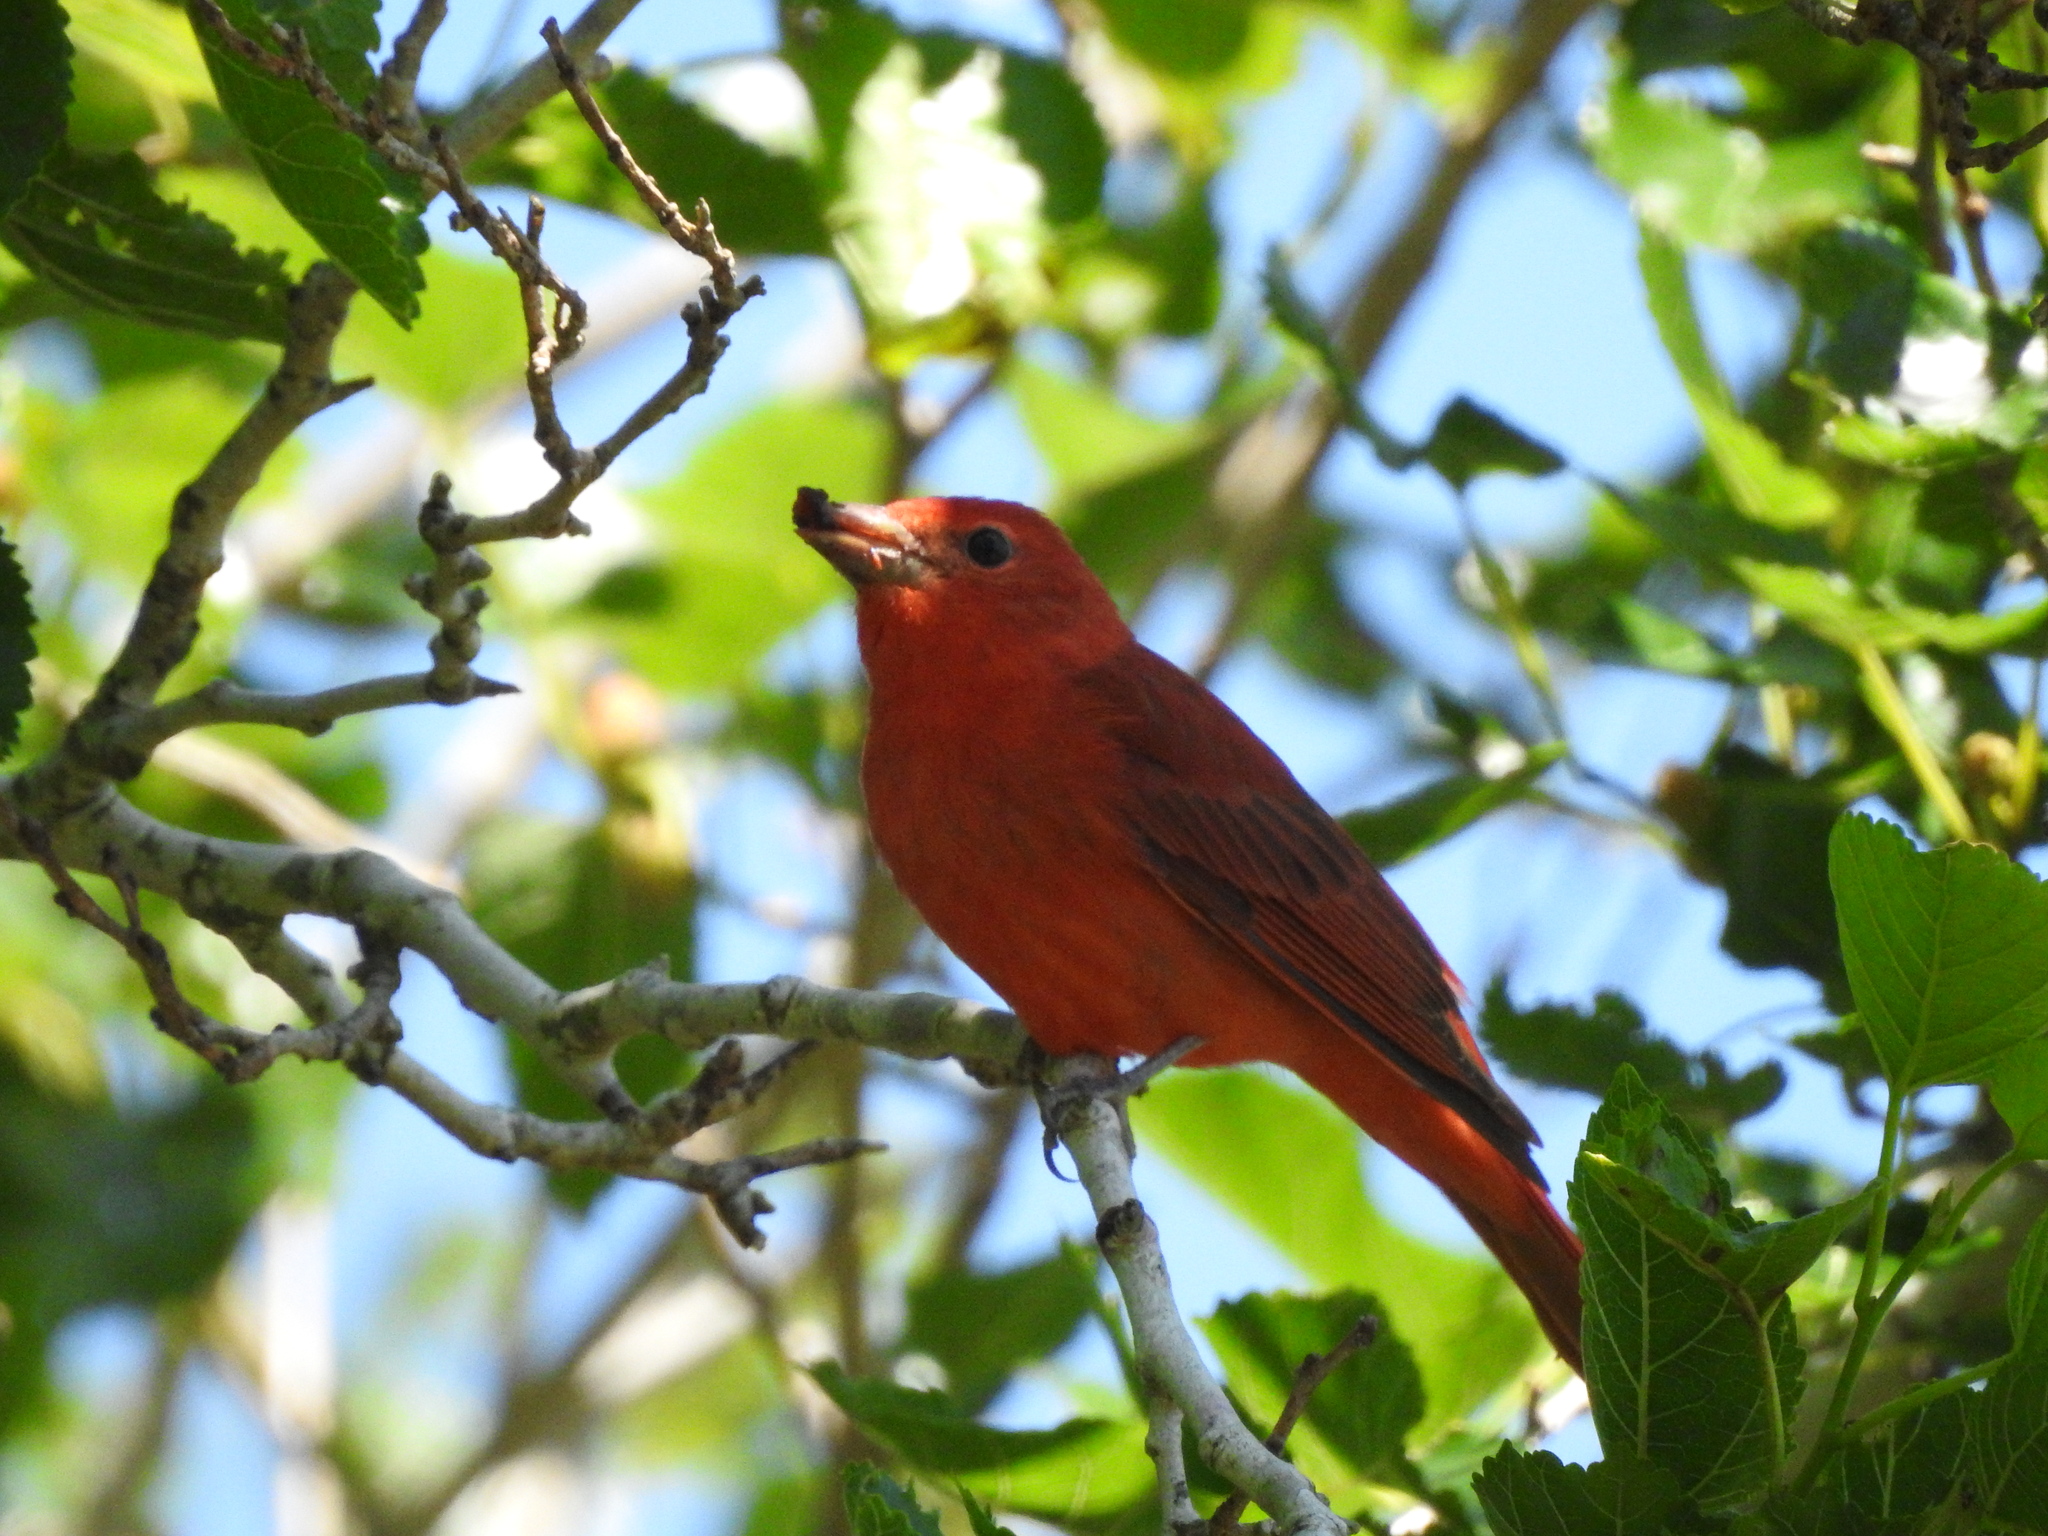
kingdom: Animalia
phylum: Chordata
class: Aves
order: Passeriformes
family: Cardinalidae
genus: Piranga
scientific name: Piranga rubra
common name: Summer tanager
